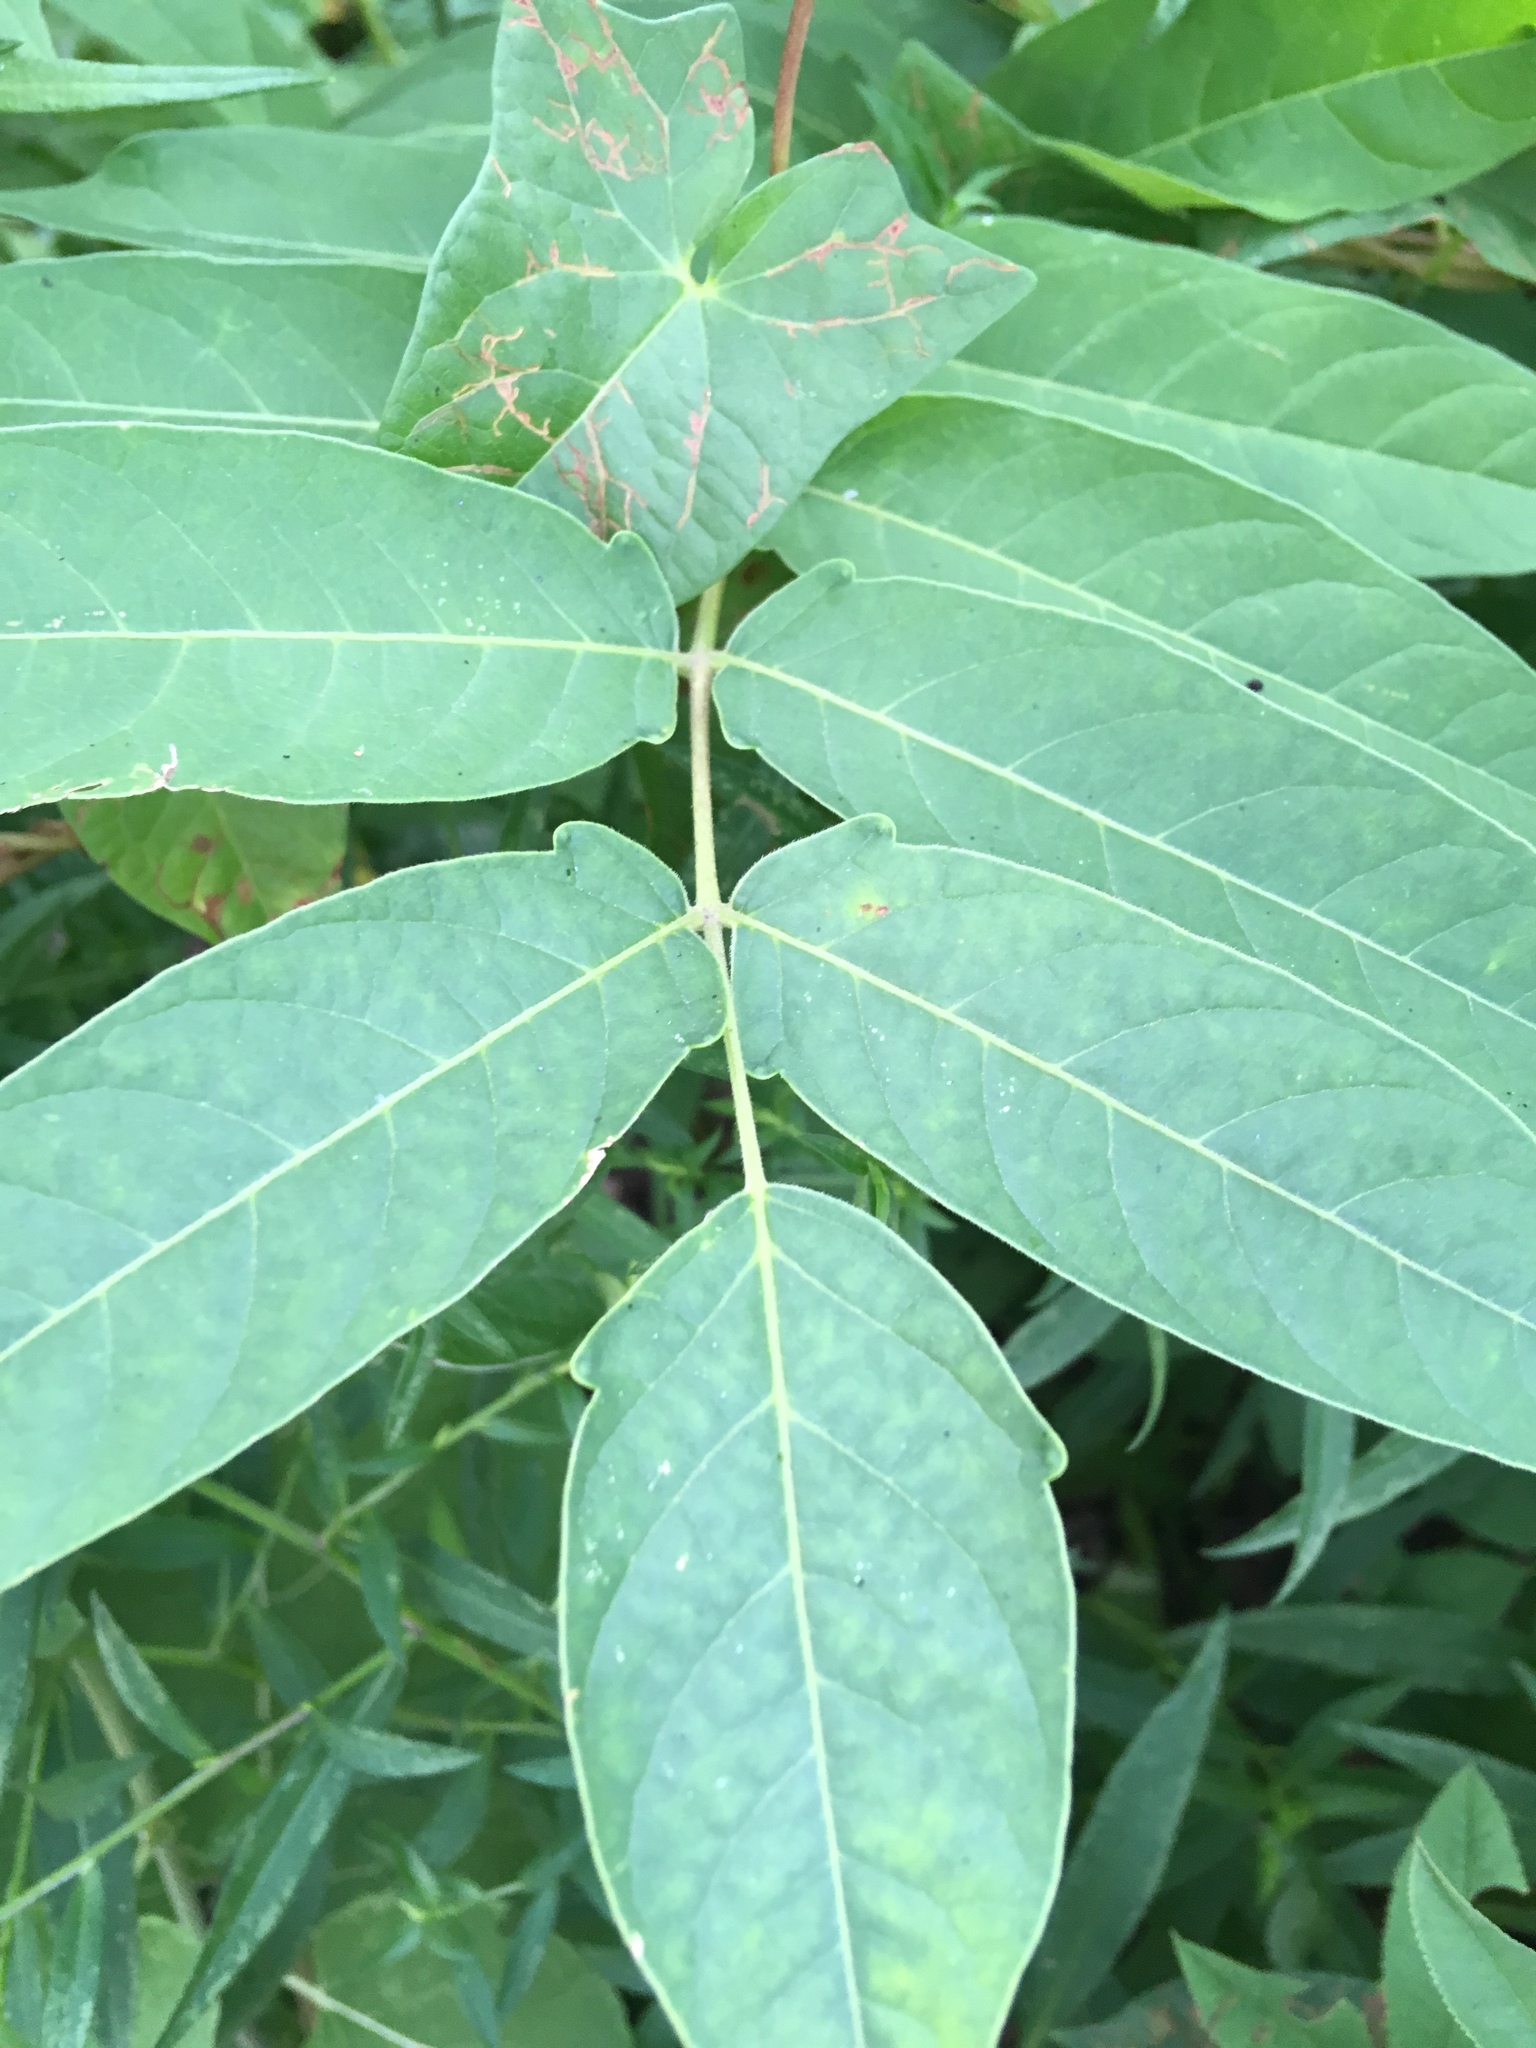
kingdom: Plantae
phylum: Tracheophyta
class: Magnoliopsida
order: Sapindales
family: Simaroubaceae
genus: Ailanthus
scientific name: Ailanthus altissima
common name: Tree-of-heaven
